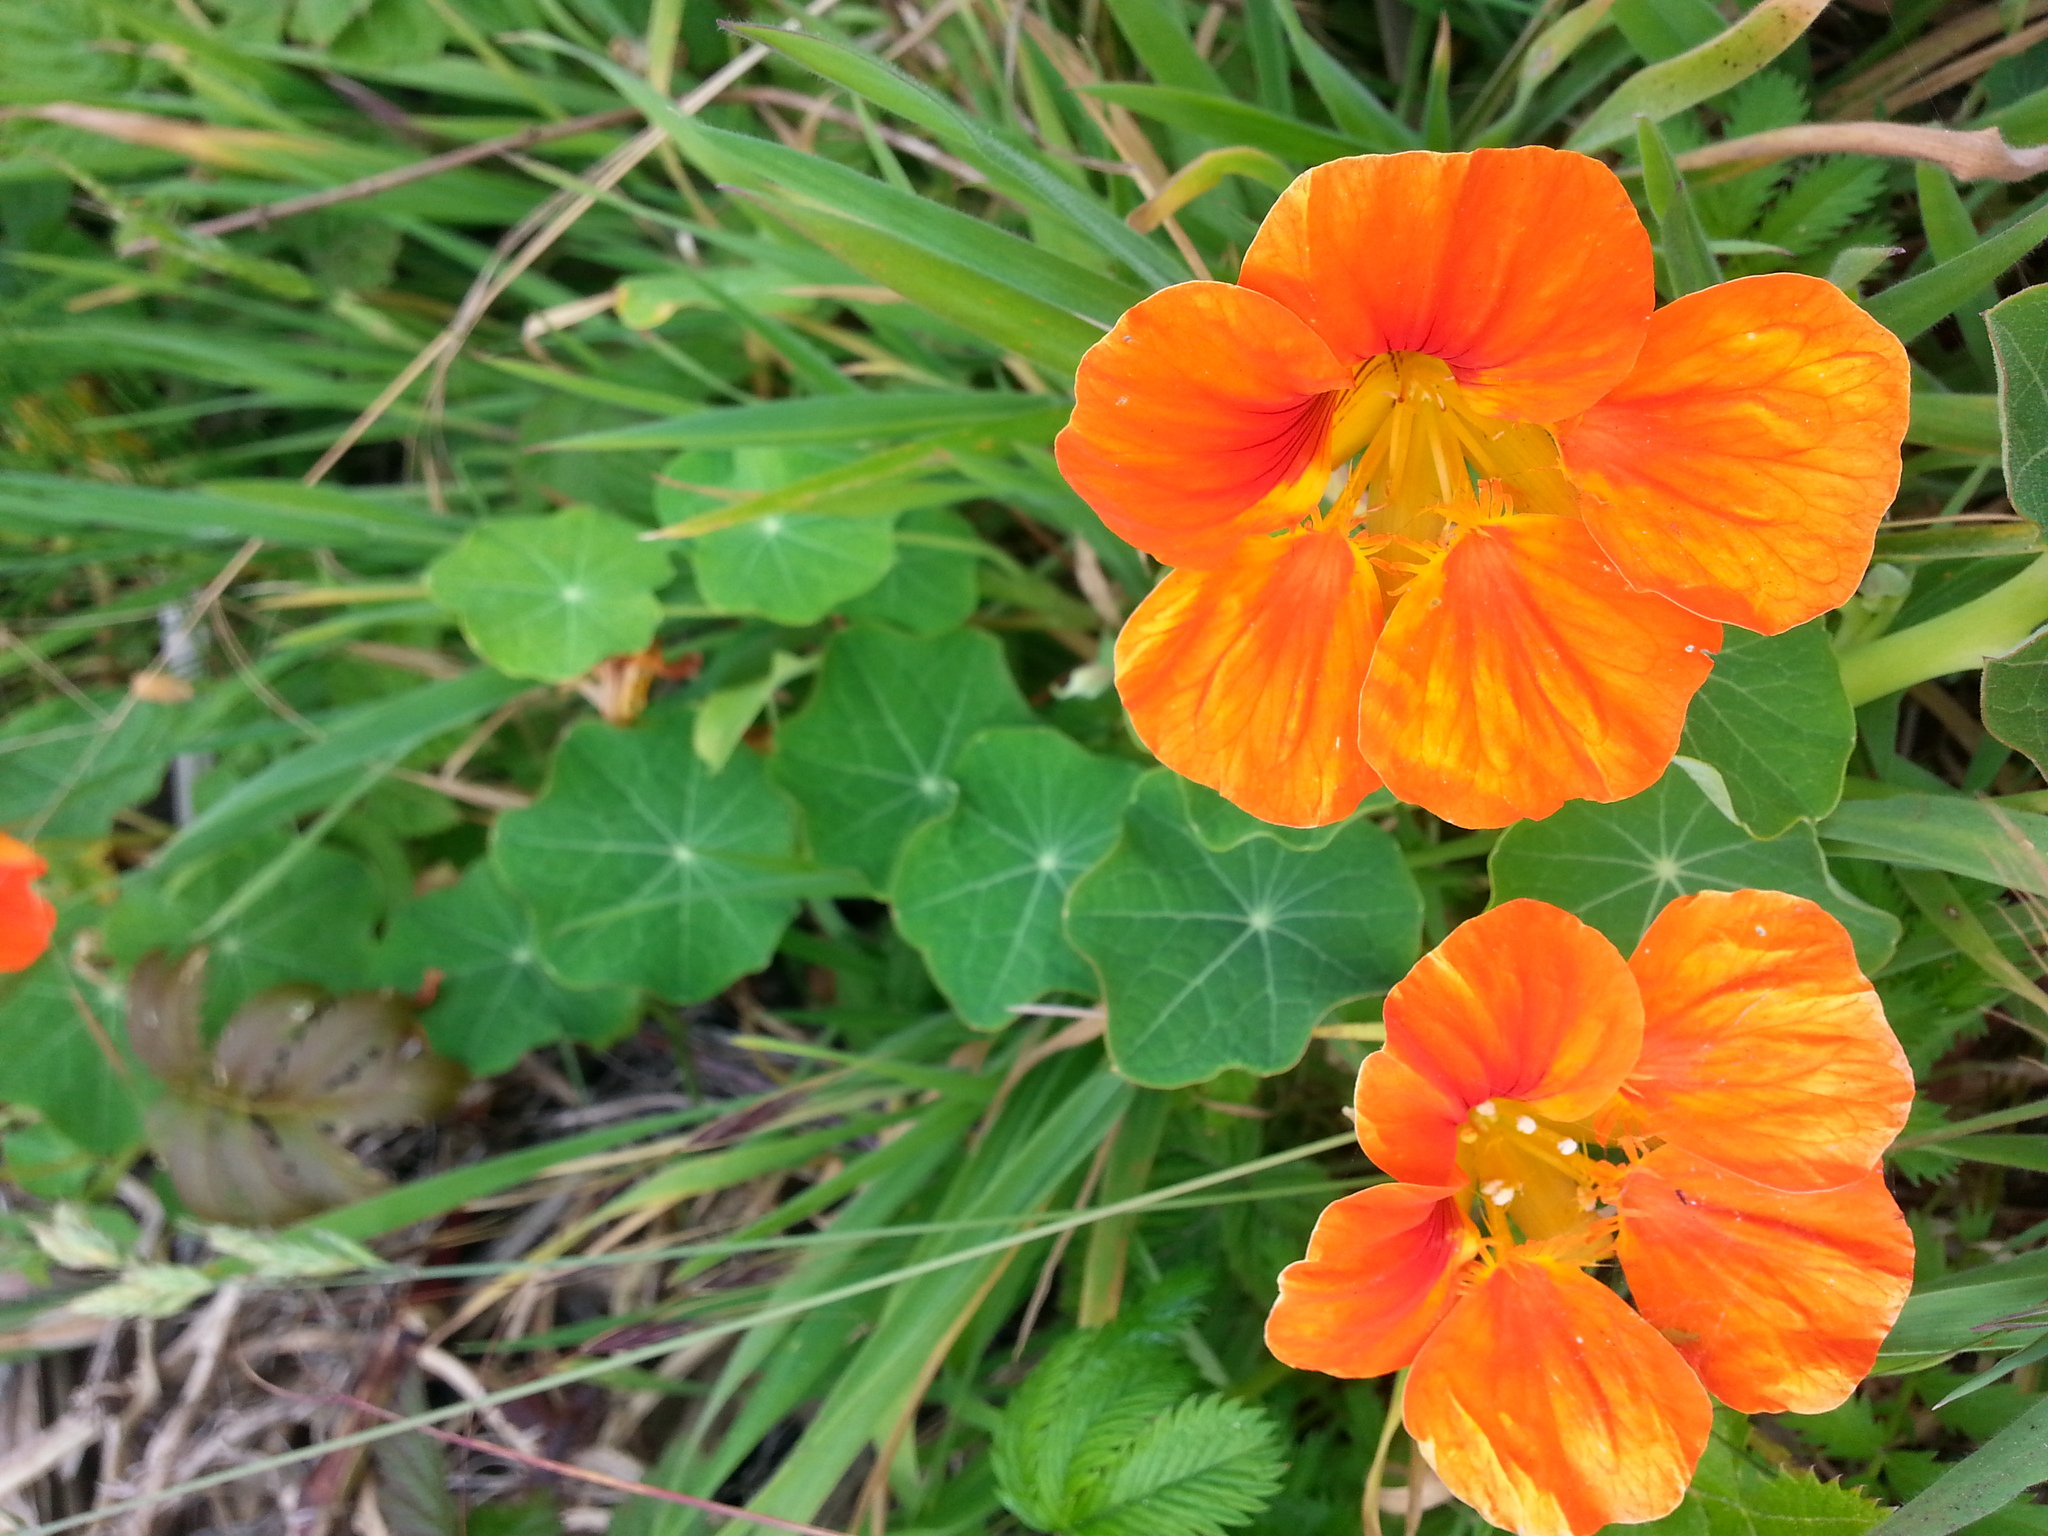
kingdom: Plantae
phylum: Tracheophyta
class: Magnoliopsida
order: Brassicales
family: Tropaeolaceae
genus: Tropaeolum
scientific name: Tropaeolum majus
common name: Nasturtium
